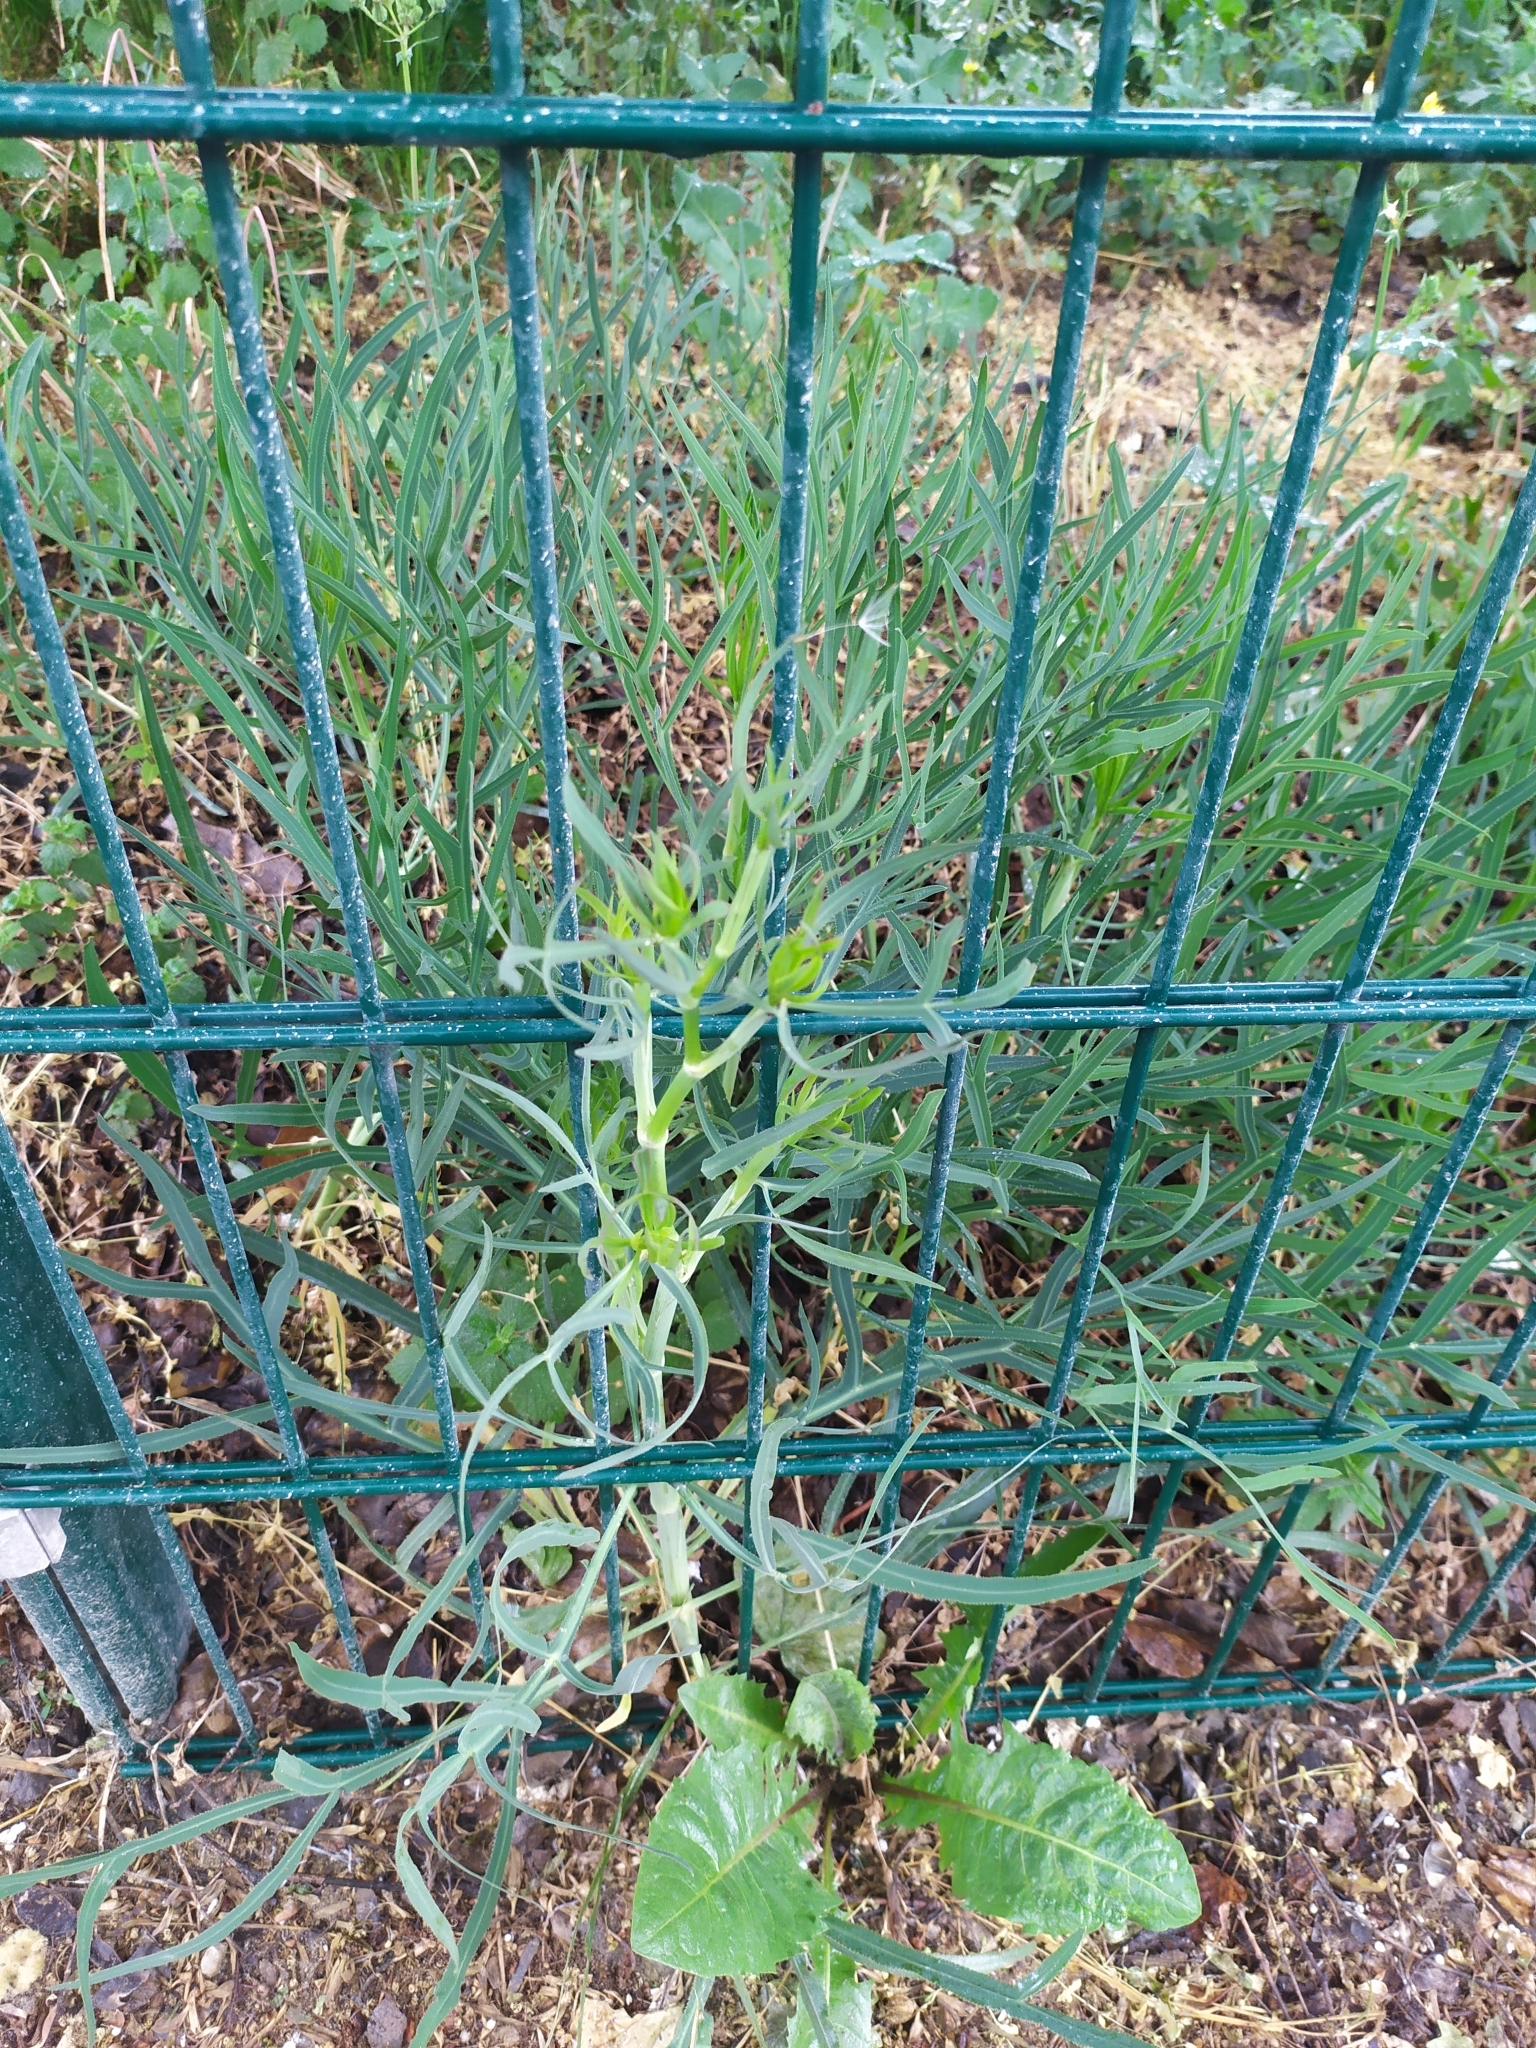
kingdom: Plantae
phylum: Tracheophyta
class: Magnoliopsida
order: Apiales
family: Apiaceae
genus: Falcaria
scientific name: Falcaria vulgaris
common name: Longleaf
